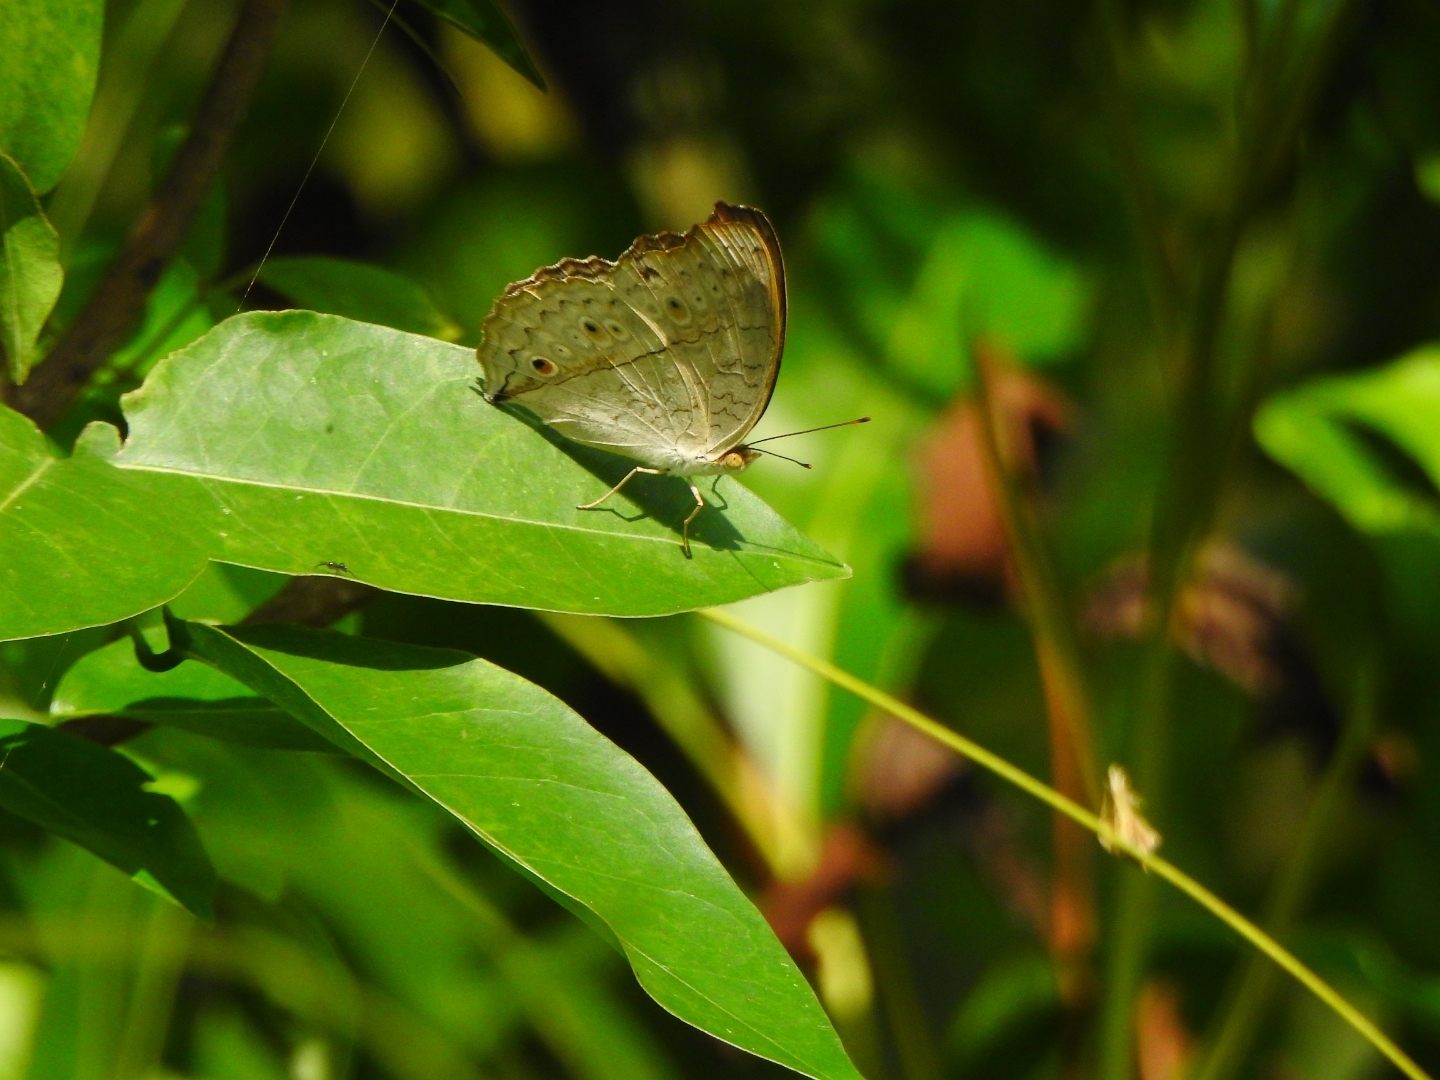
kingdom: Animalia
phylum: Arthropoda
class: Insecta
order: Lepidoptera
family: Nymphalidae
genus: Junonia
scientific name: Junonia atlites
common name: Grey pansy
